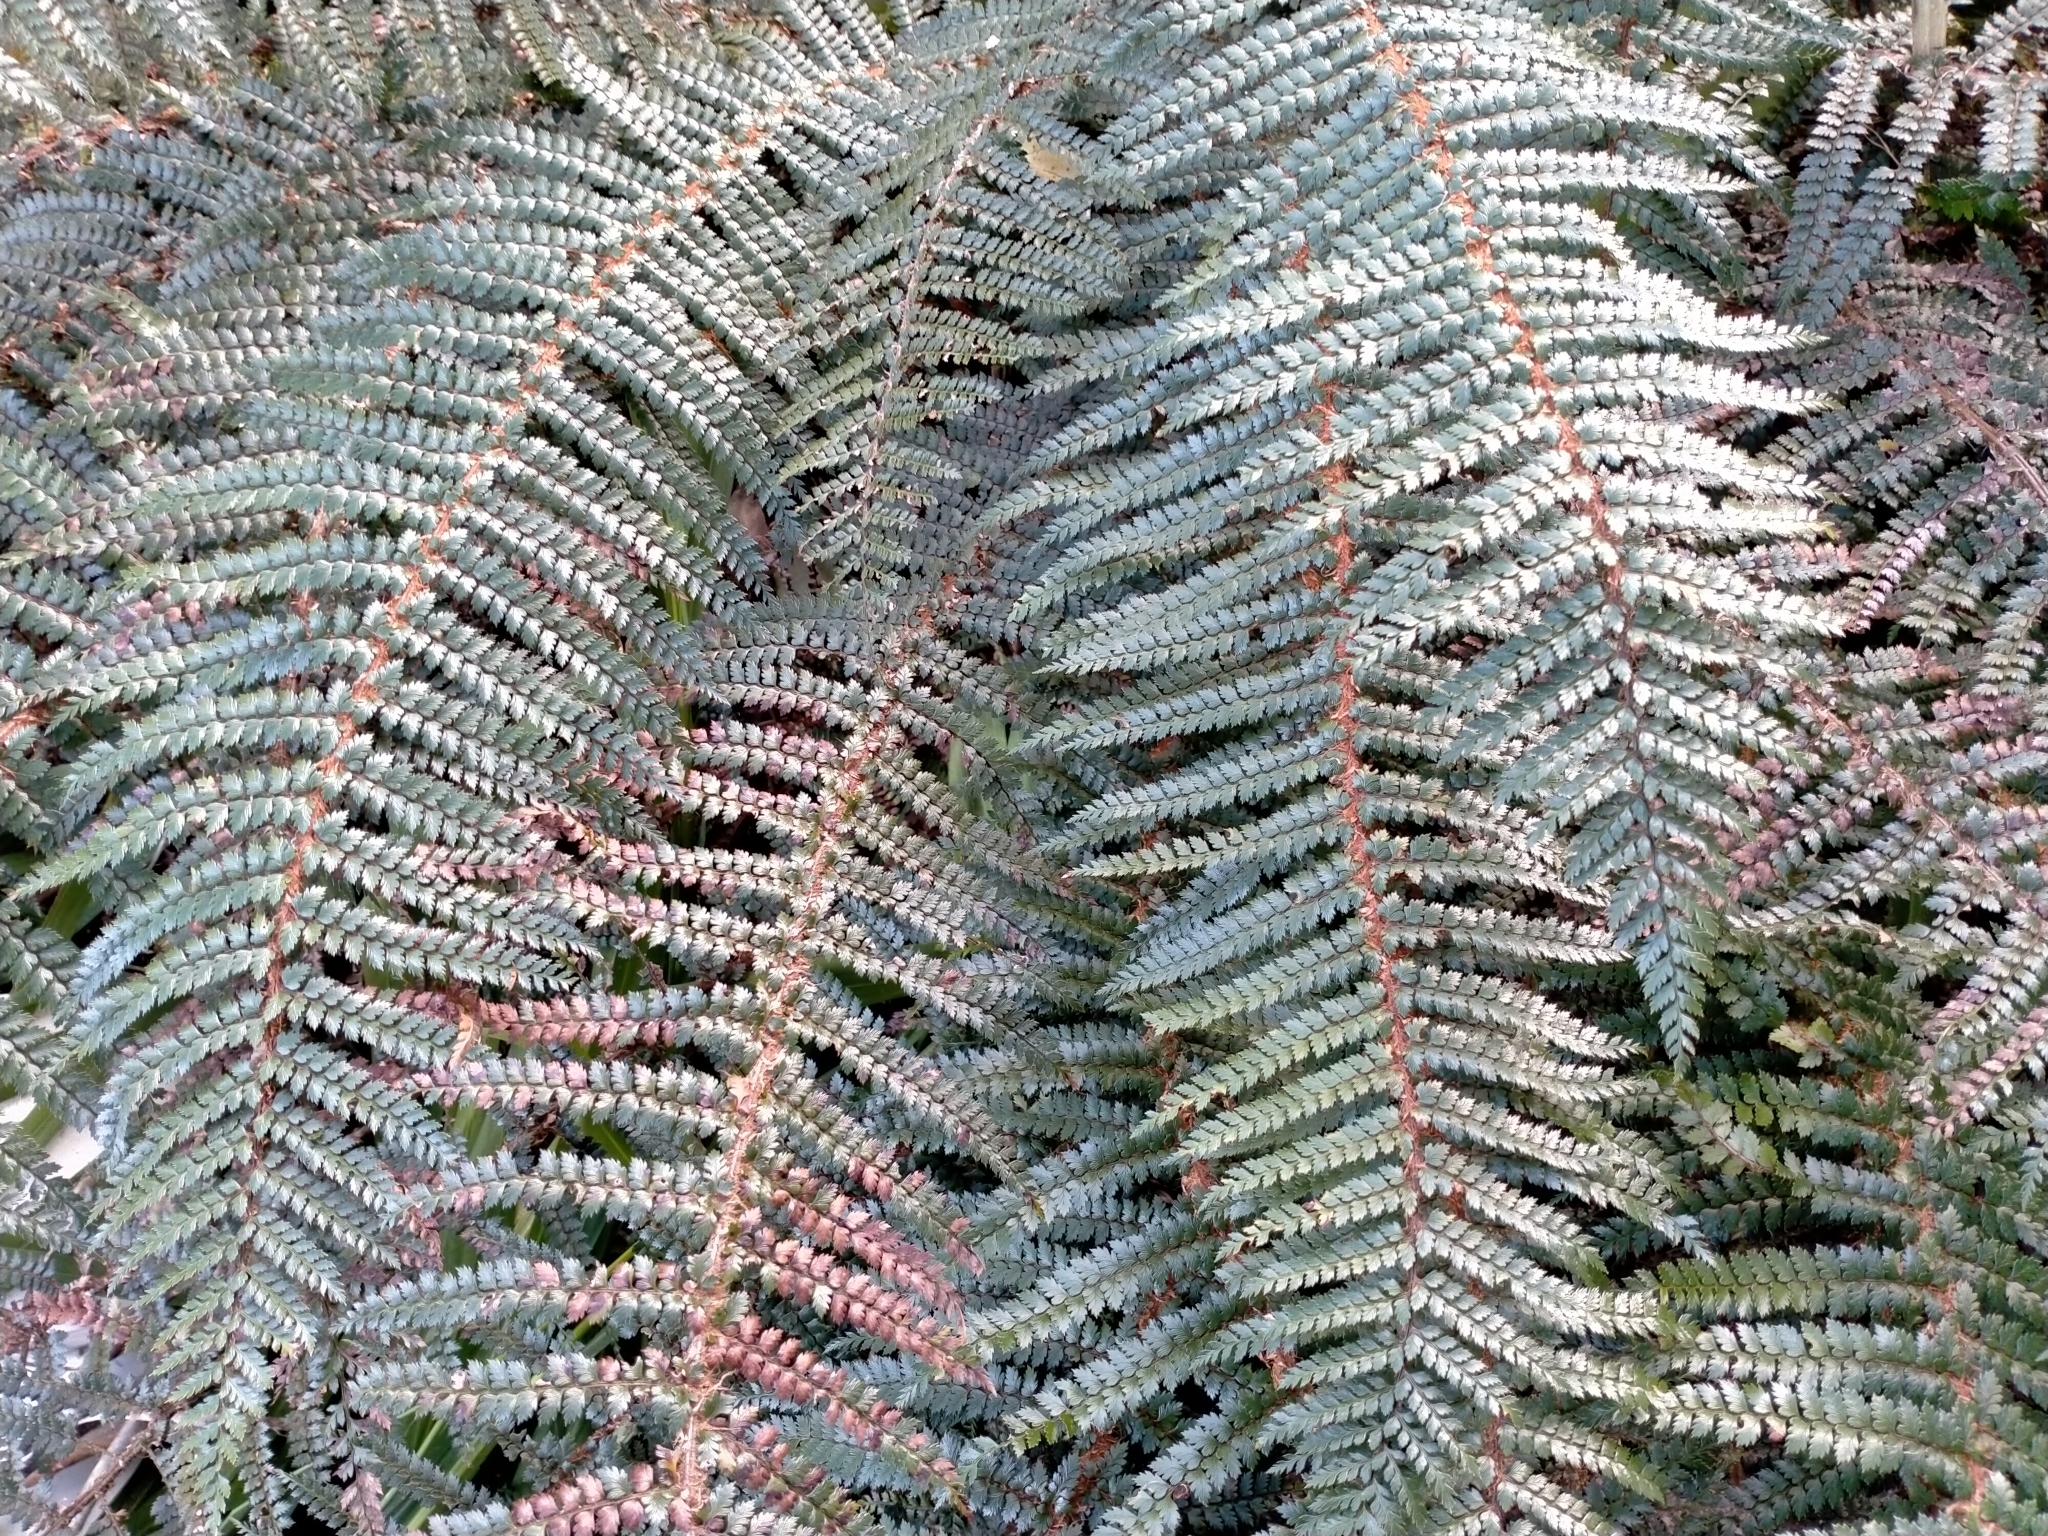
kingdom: Plantae
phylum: Tracheophyta
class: Polypodiopsida
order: Polypodiales
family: Dryopteridaceae
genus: Polystichum
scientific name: Polystichum vestitum
